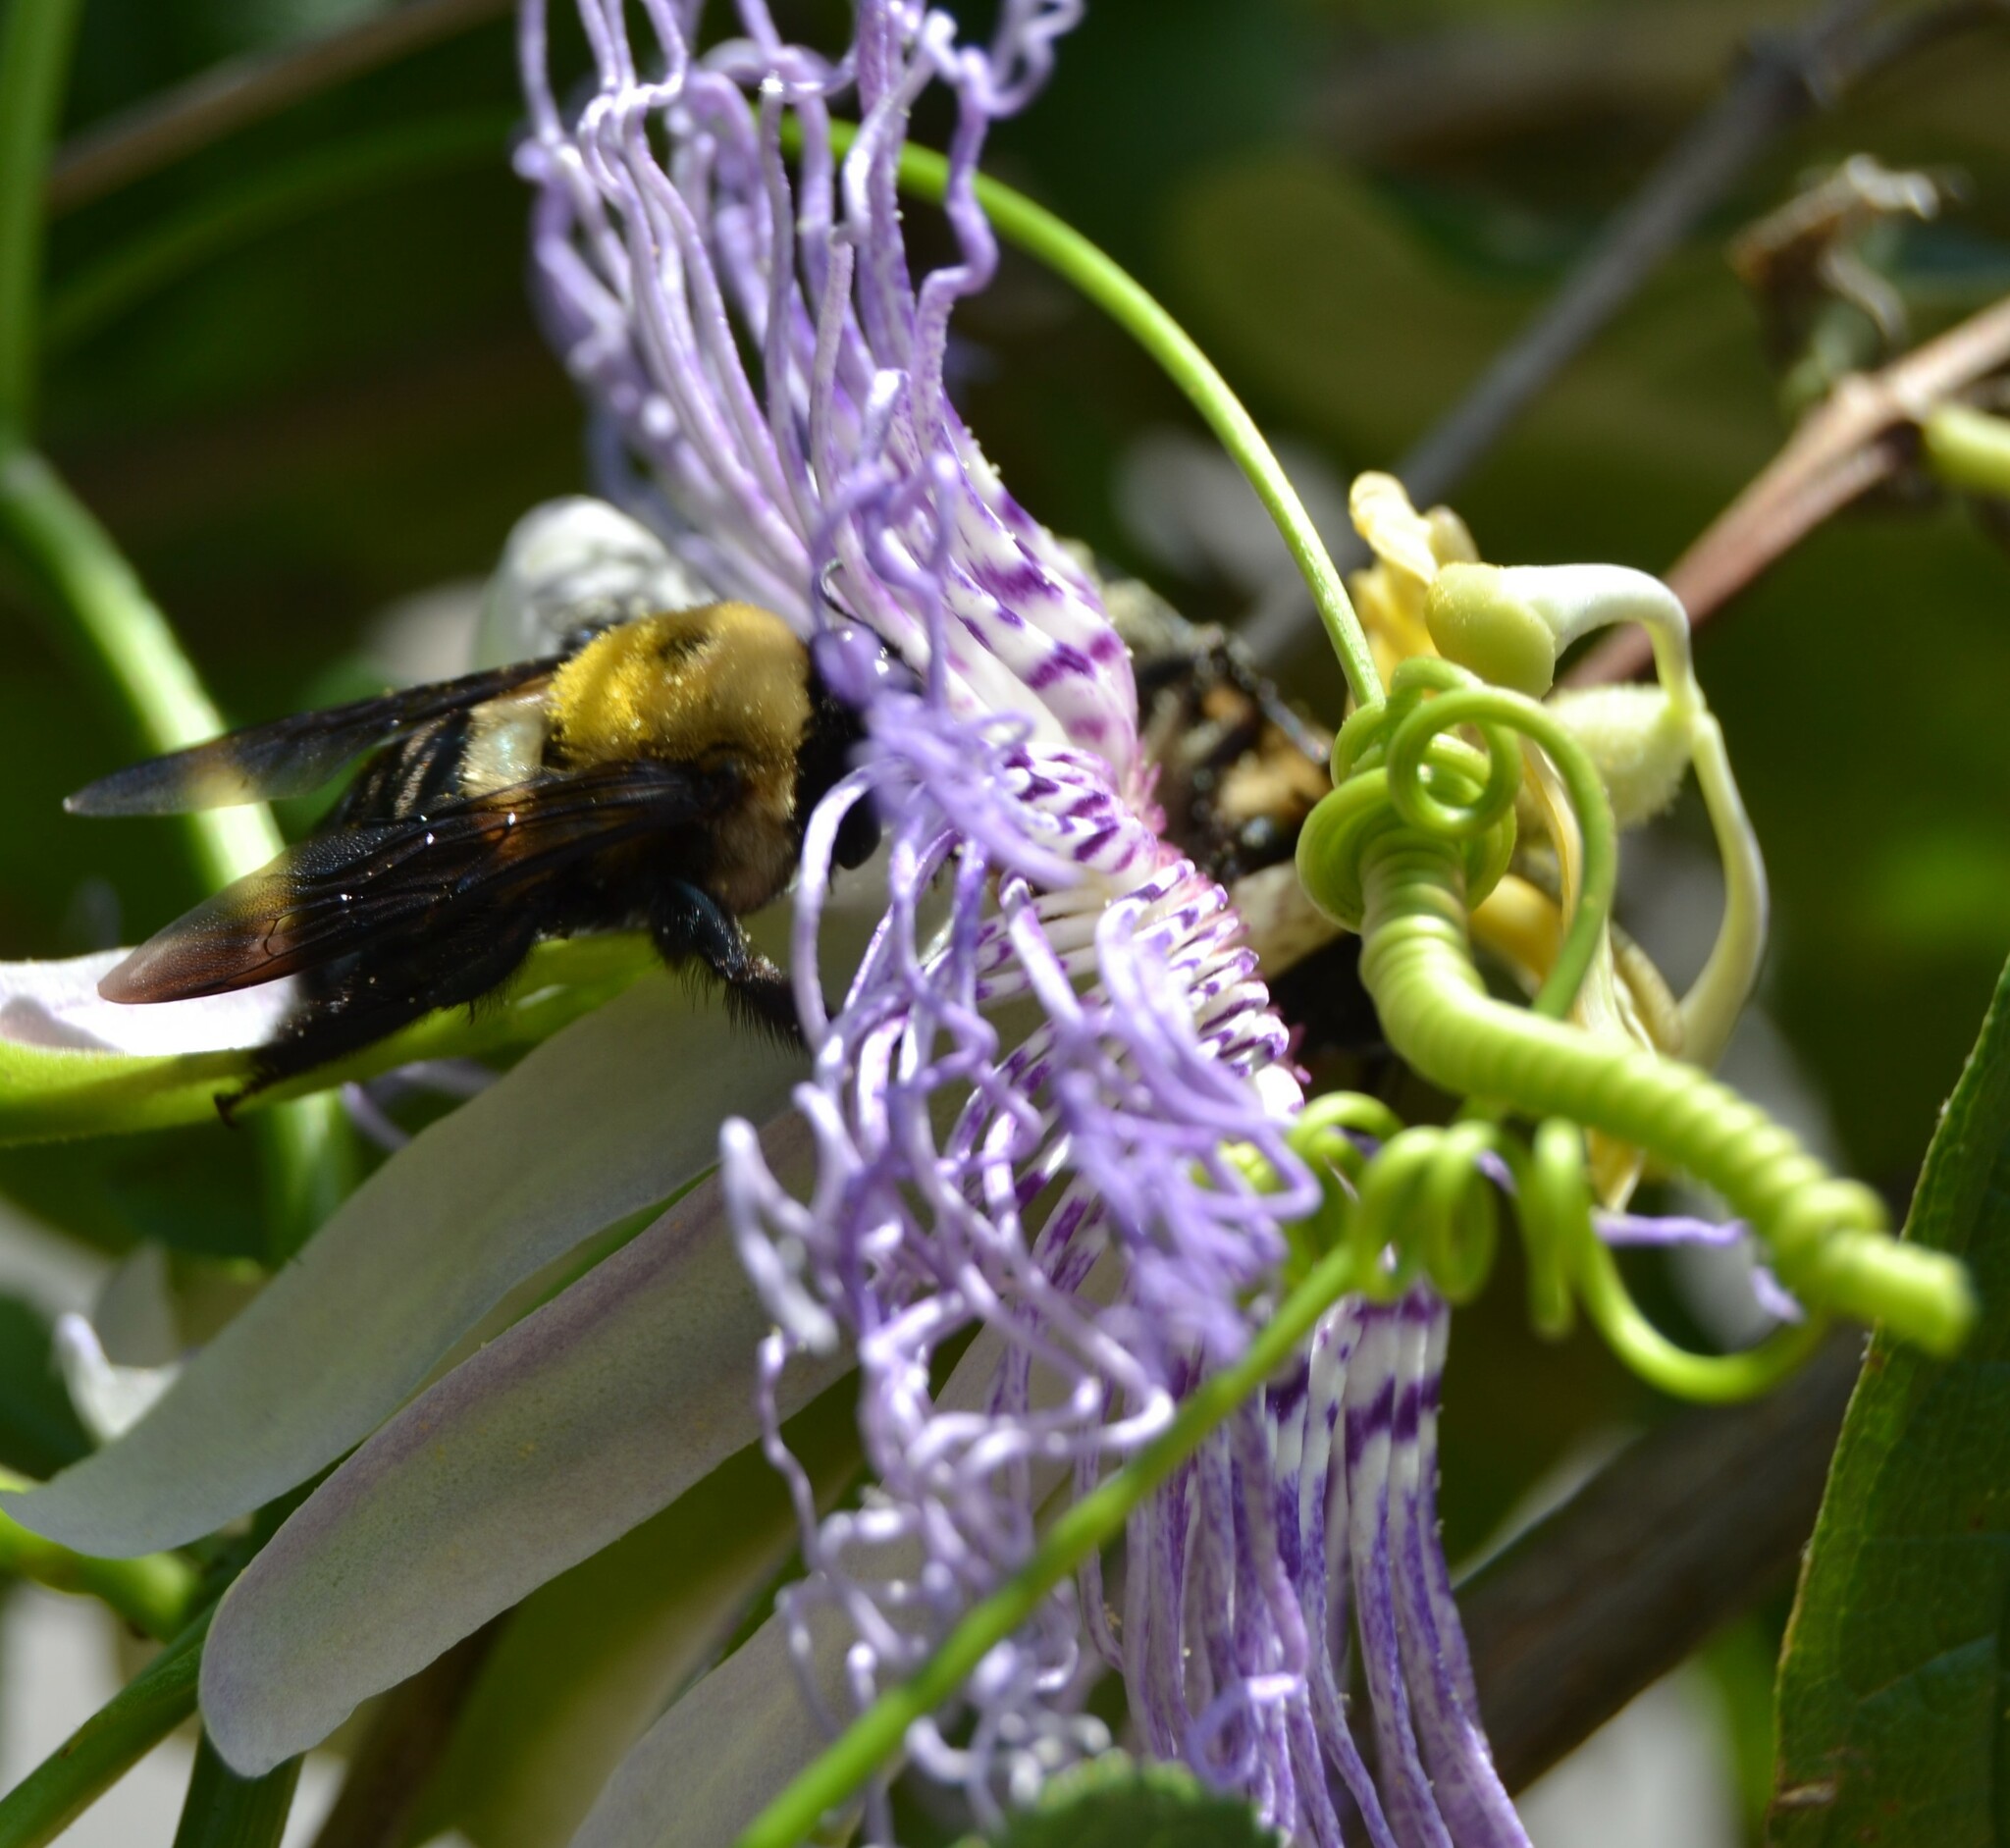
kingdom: Animalia
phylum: Arthropoda
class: Insecta
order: Hymenoptera
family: Apidae
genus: Xylocopa
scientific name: Xylocopa virginica
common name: Carpenter bee
